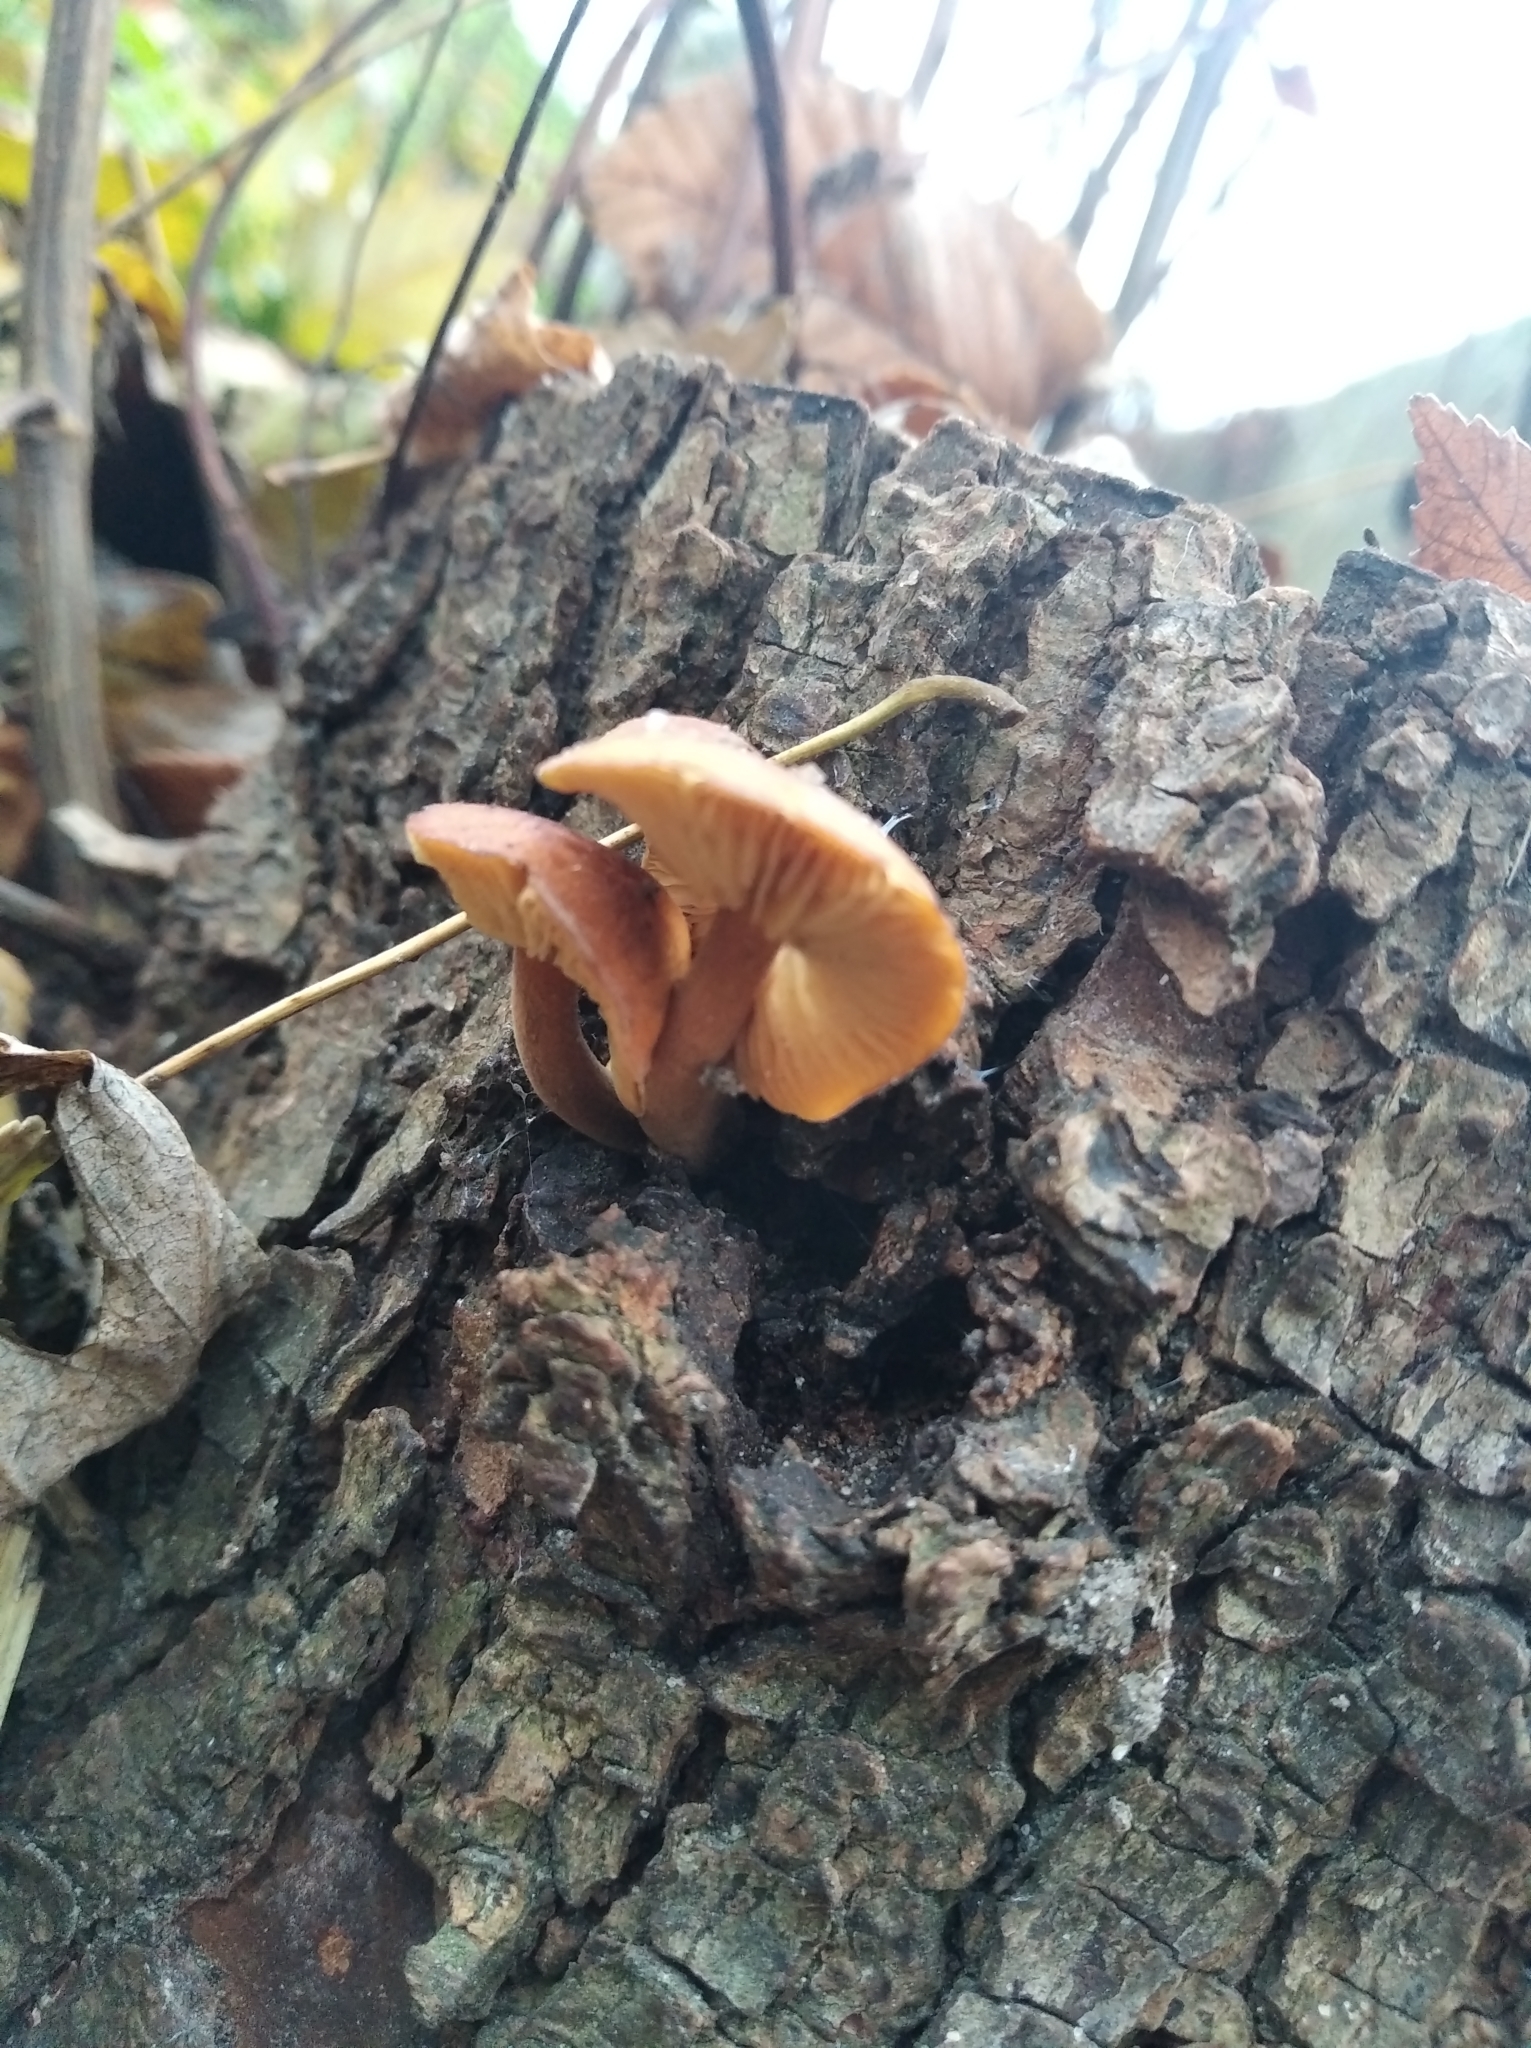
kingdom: Fungi
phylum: Basidiomycota
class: Agaricomycetes
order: Agaricales
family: Physalacriaceae
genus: Flammulina
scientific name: Flammulina
